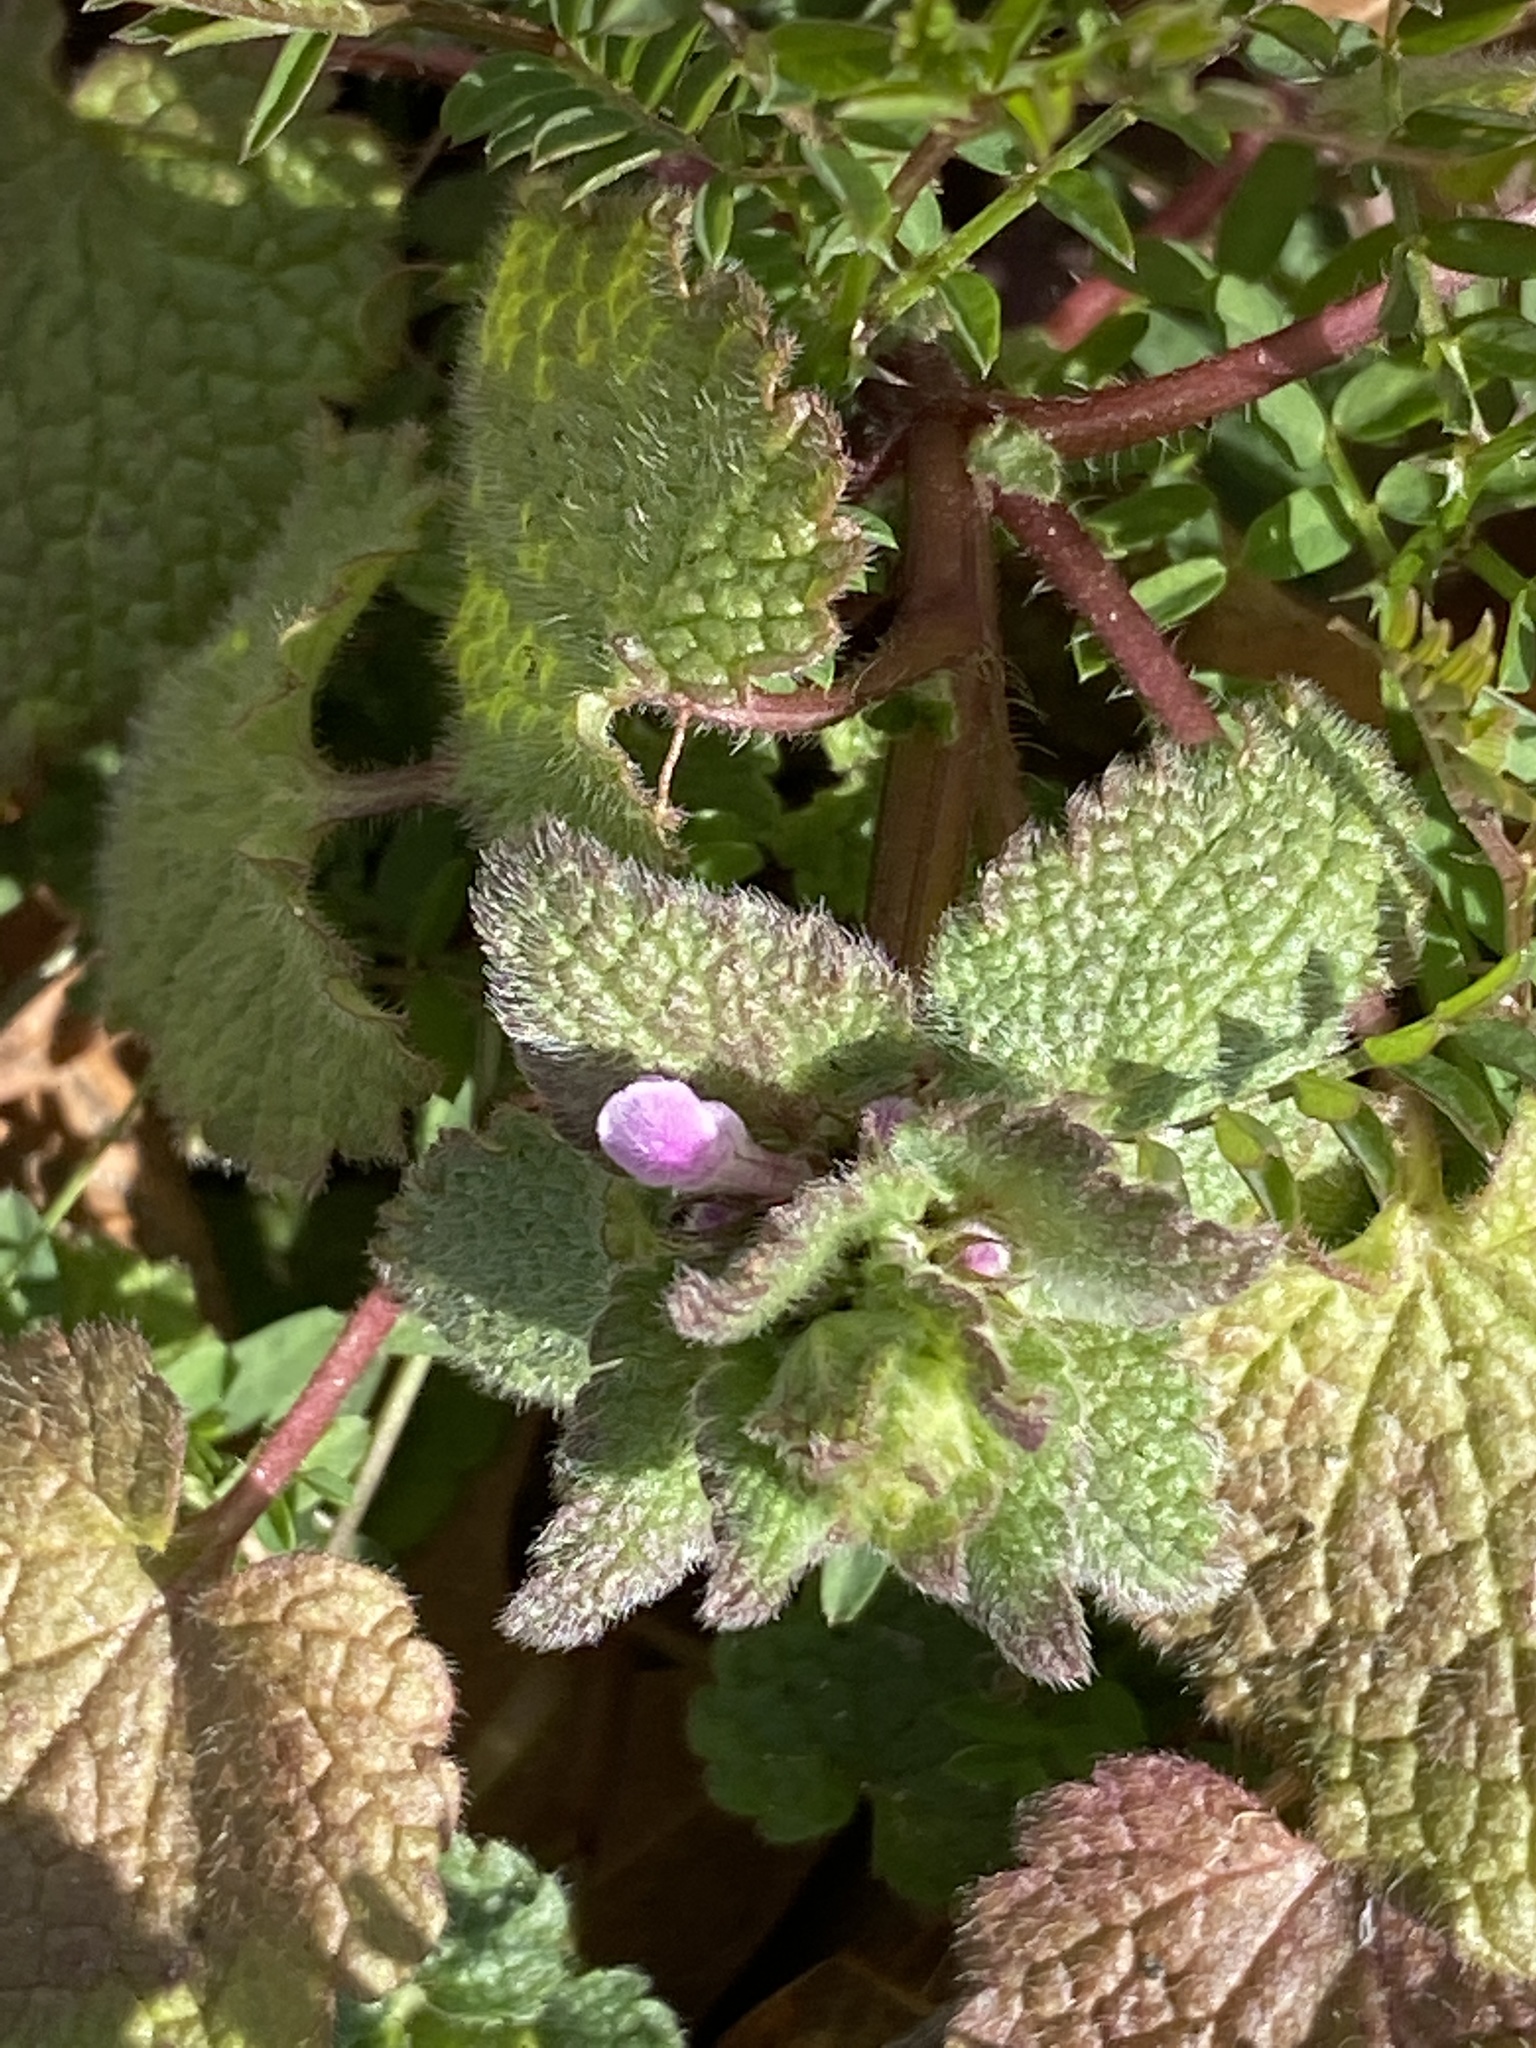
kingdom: Plantae
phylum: Tracheophyta
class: Magnoliopsida
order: Lamiales
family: Lamiaceae
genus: Lamium
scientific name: Lamium purpureum
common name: Red dead-nettle
